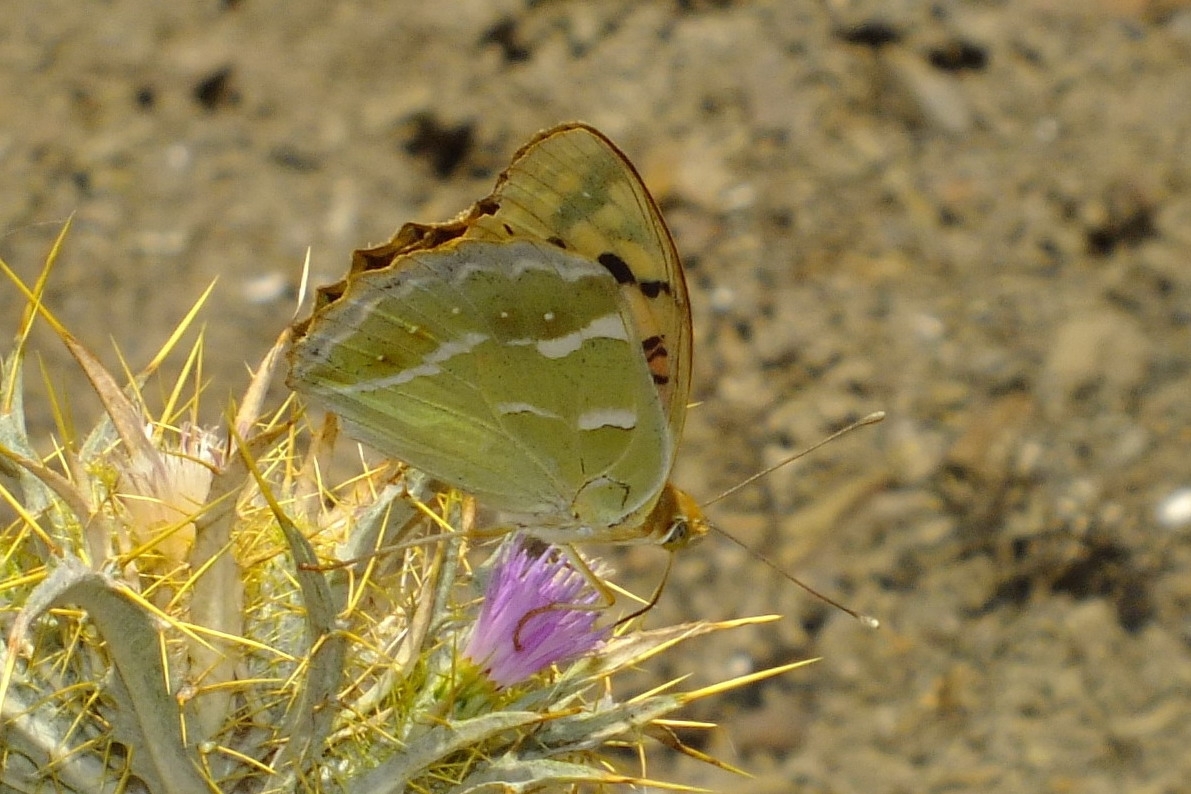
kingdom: Animalia
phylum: Arthropoda
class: Insecta
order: Lepidoptera
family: Nymphalidae
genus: Damora
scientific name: Damora pandora
